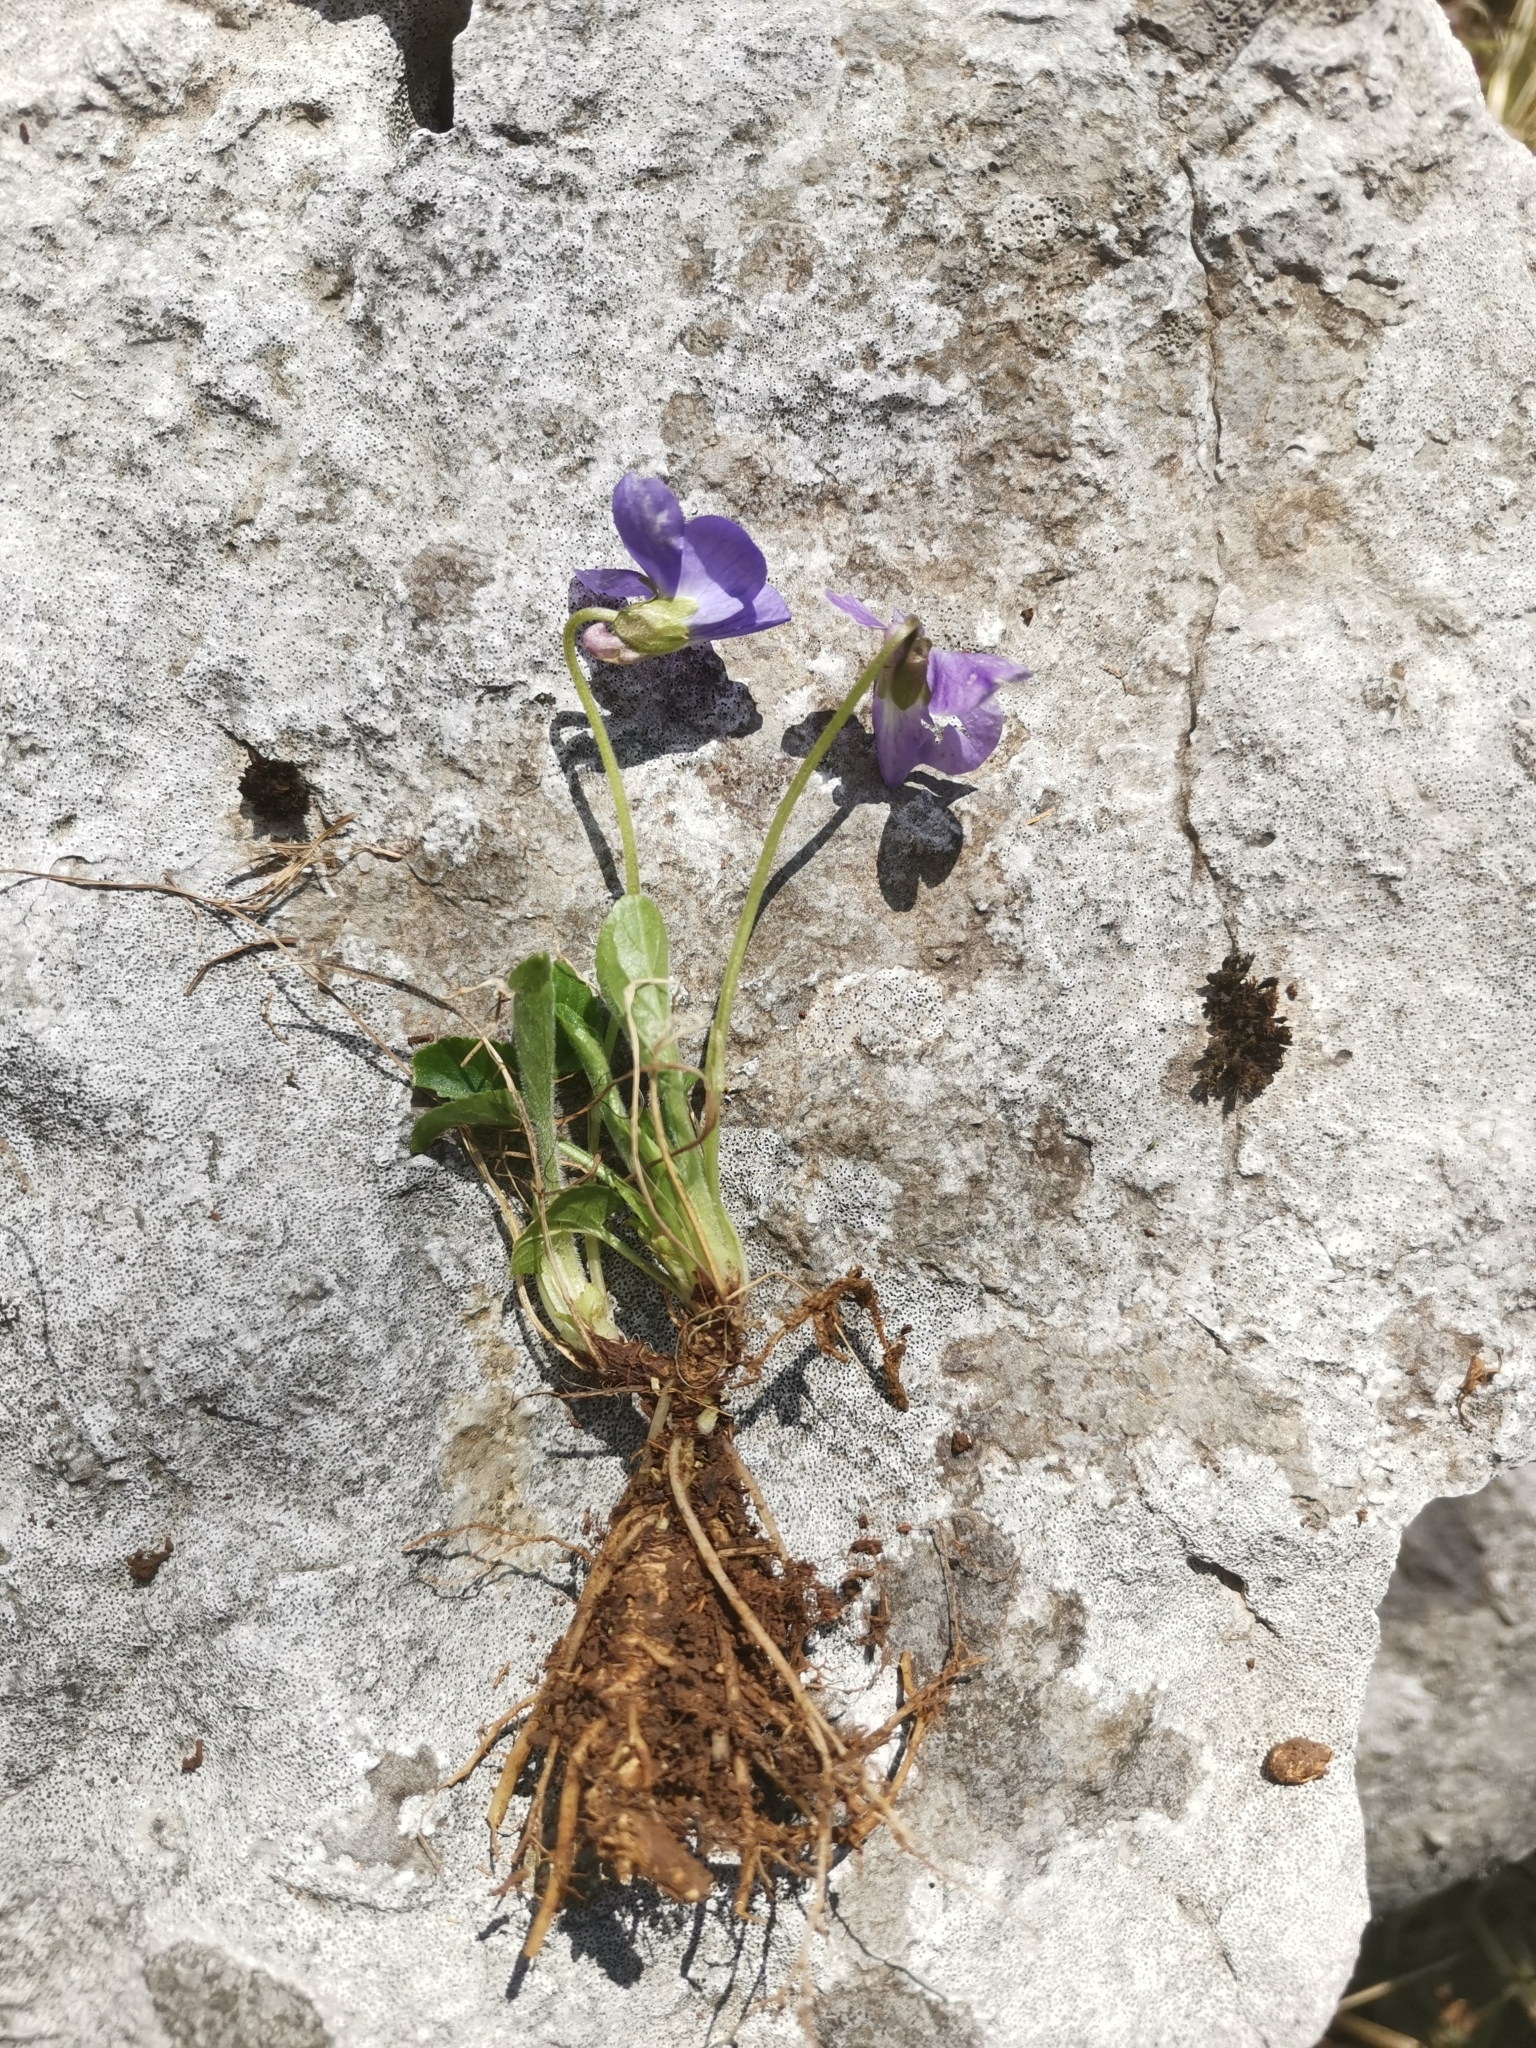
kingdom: Plantae
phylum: Tracheophyta
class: Magnoliopsida
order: Malpighiales
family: Violaceae
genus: Viola
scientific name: Viola hirta
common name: Hairy violet
